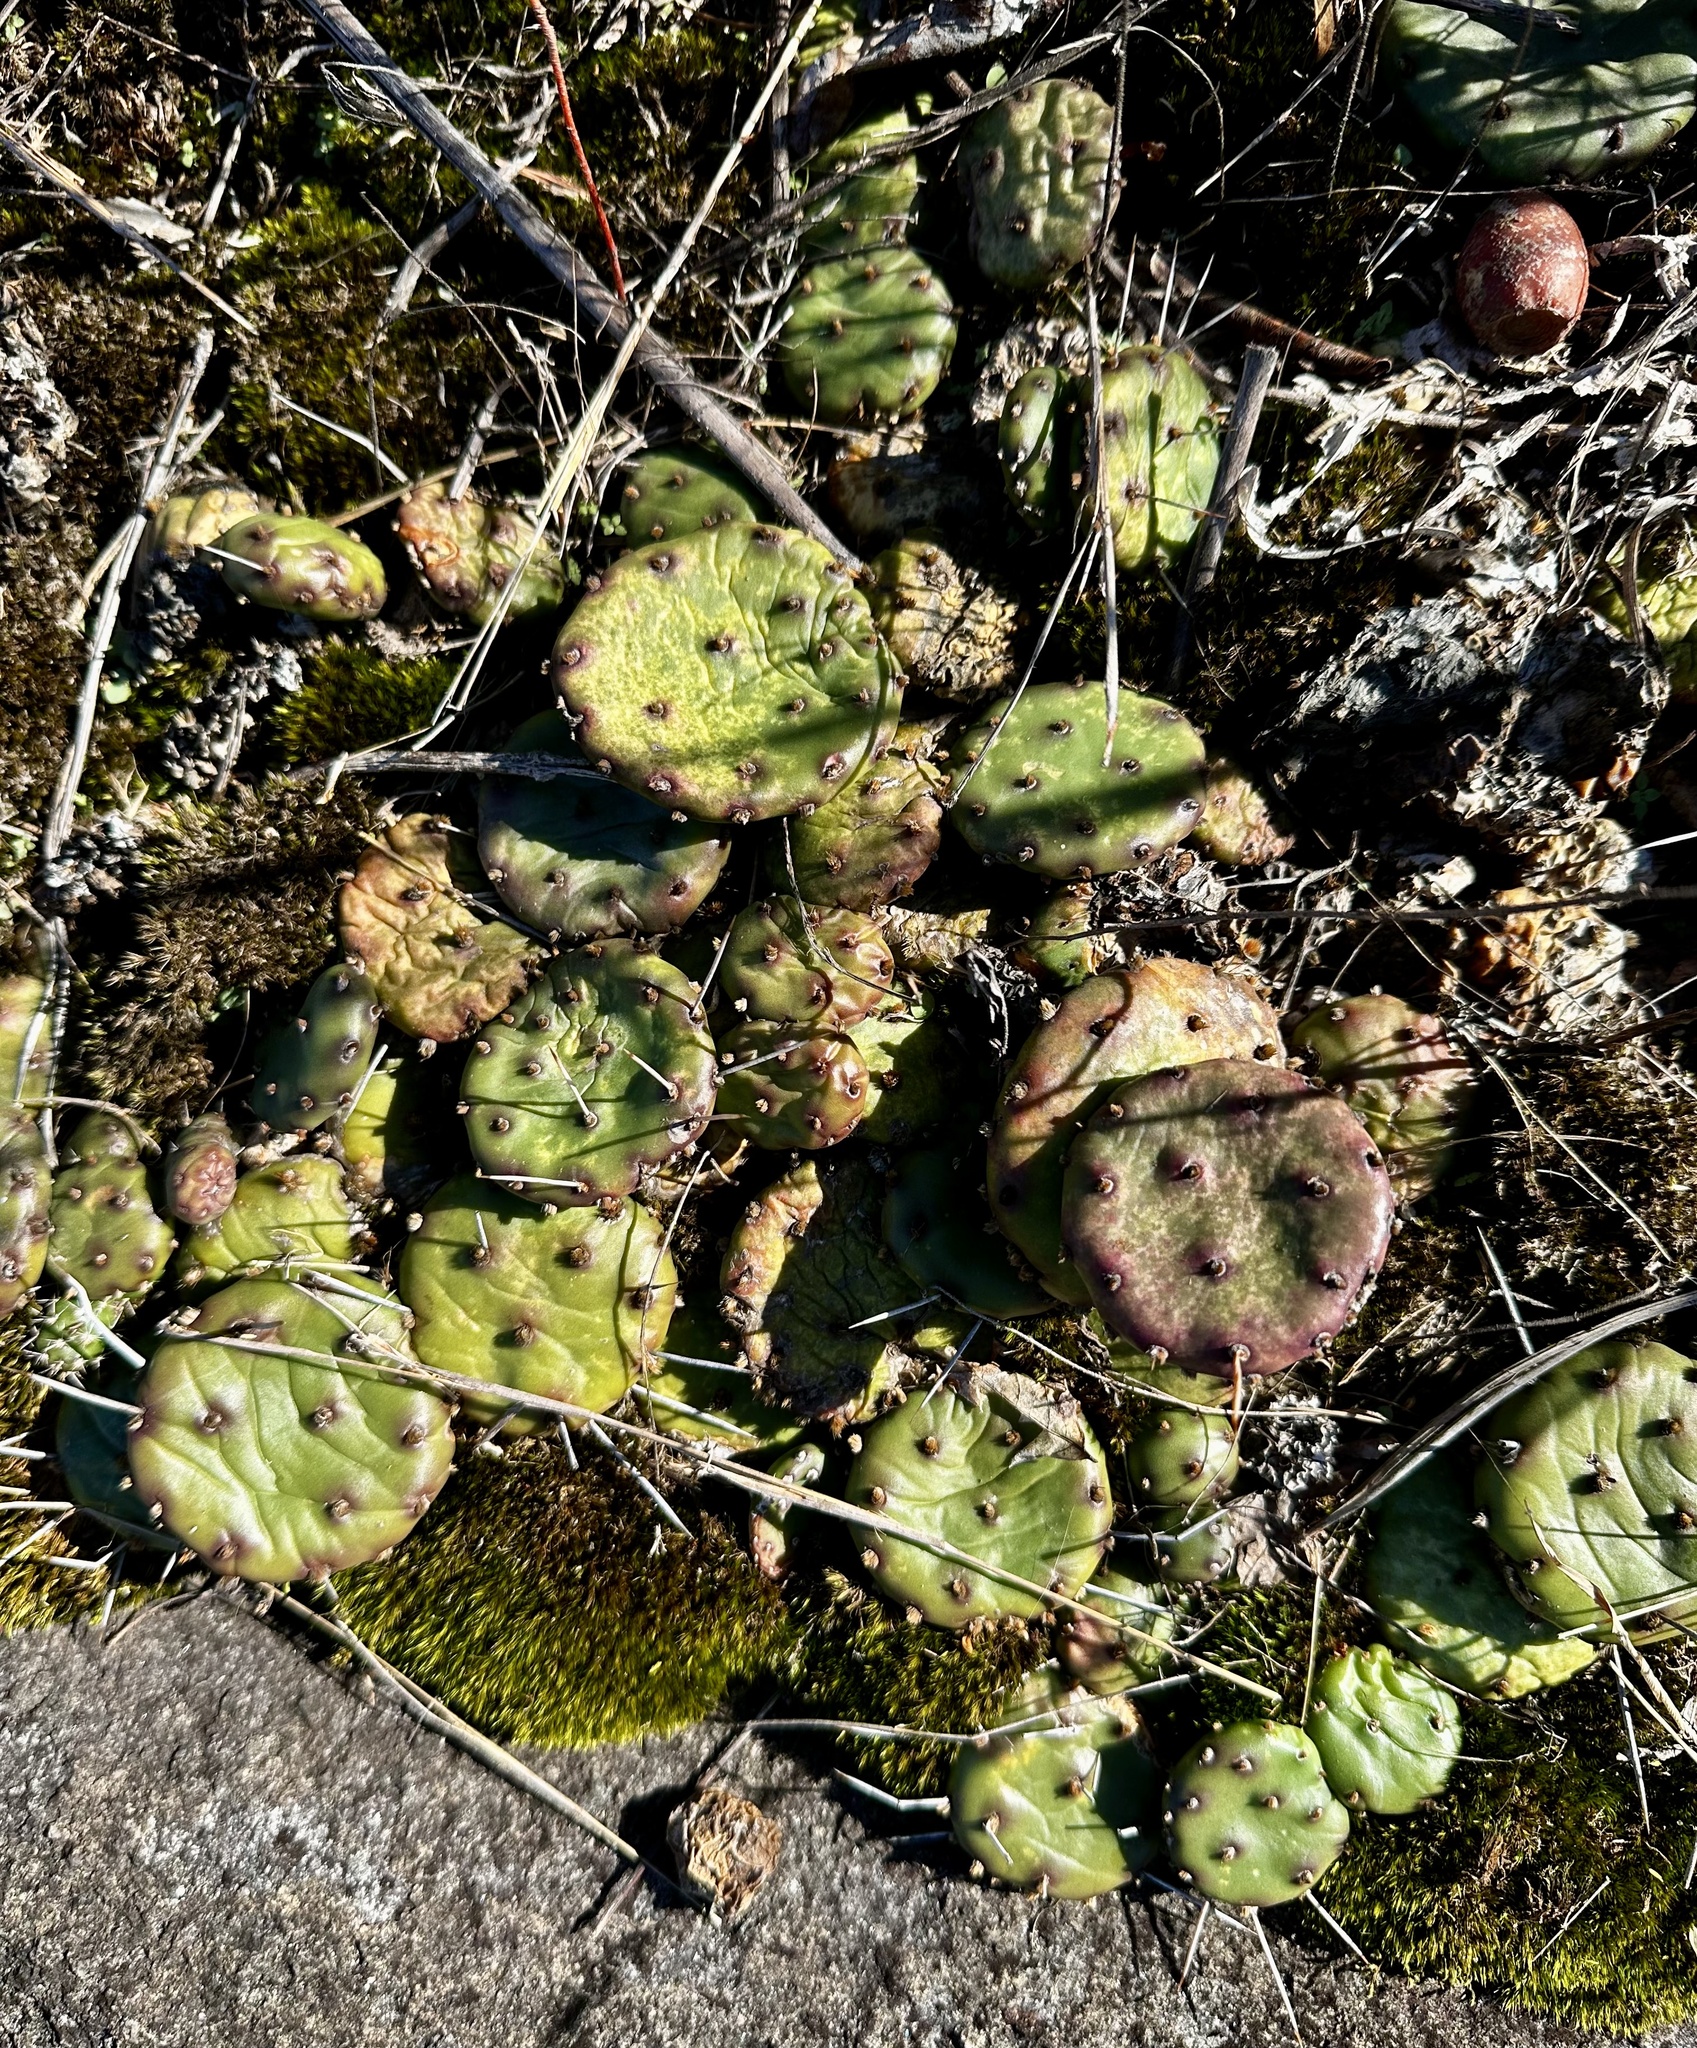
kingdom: Plantae
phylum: Tracheophyta
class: Magnoliopsida
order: Caryophyllales
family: Cactaceae
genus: Opuntia
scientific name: Opuntia mesacantha
